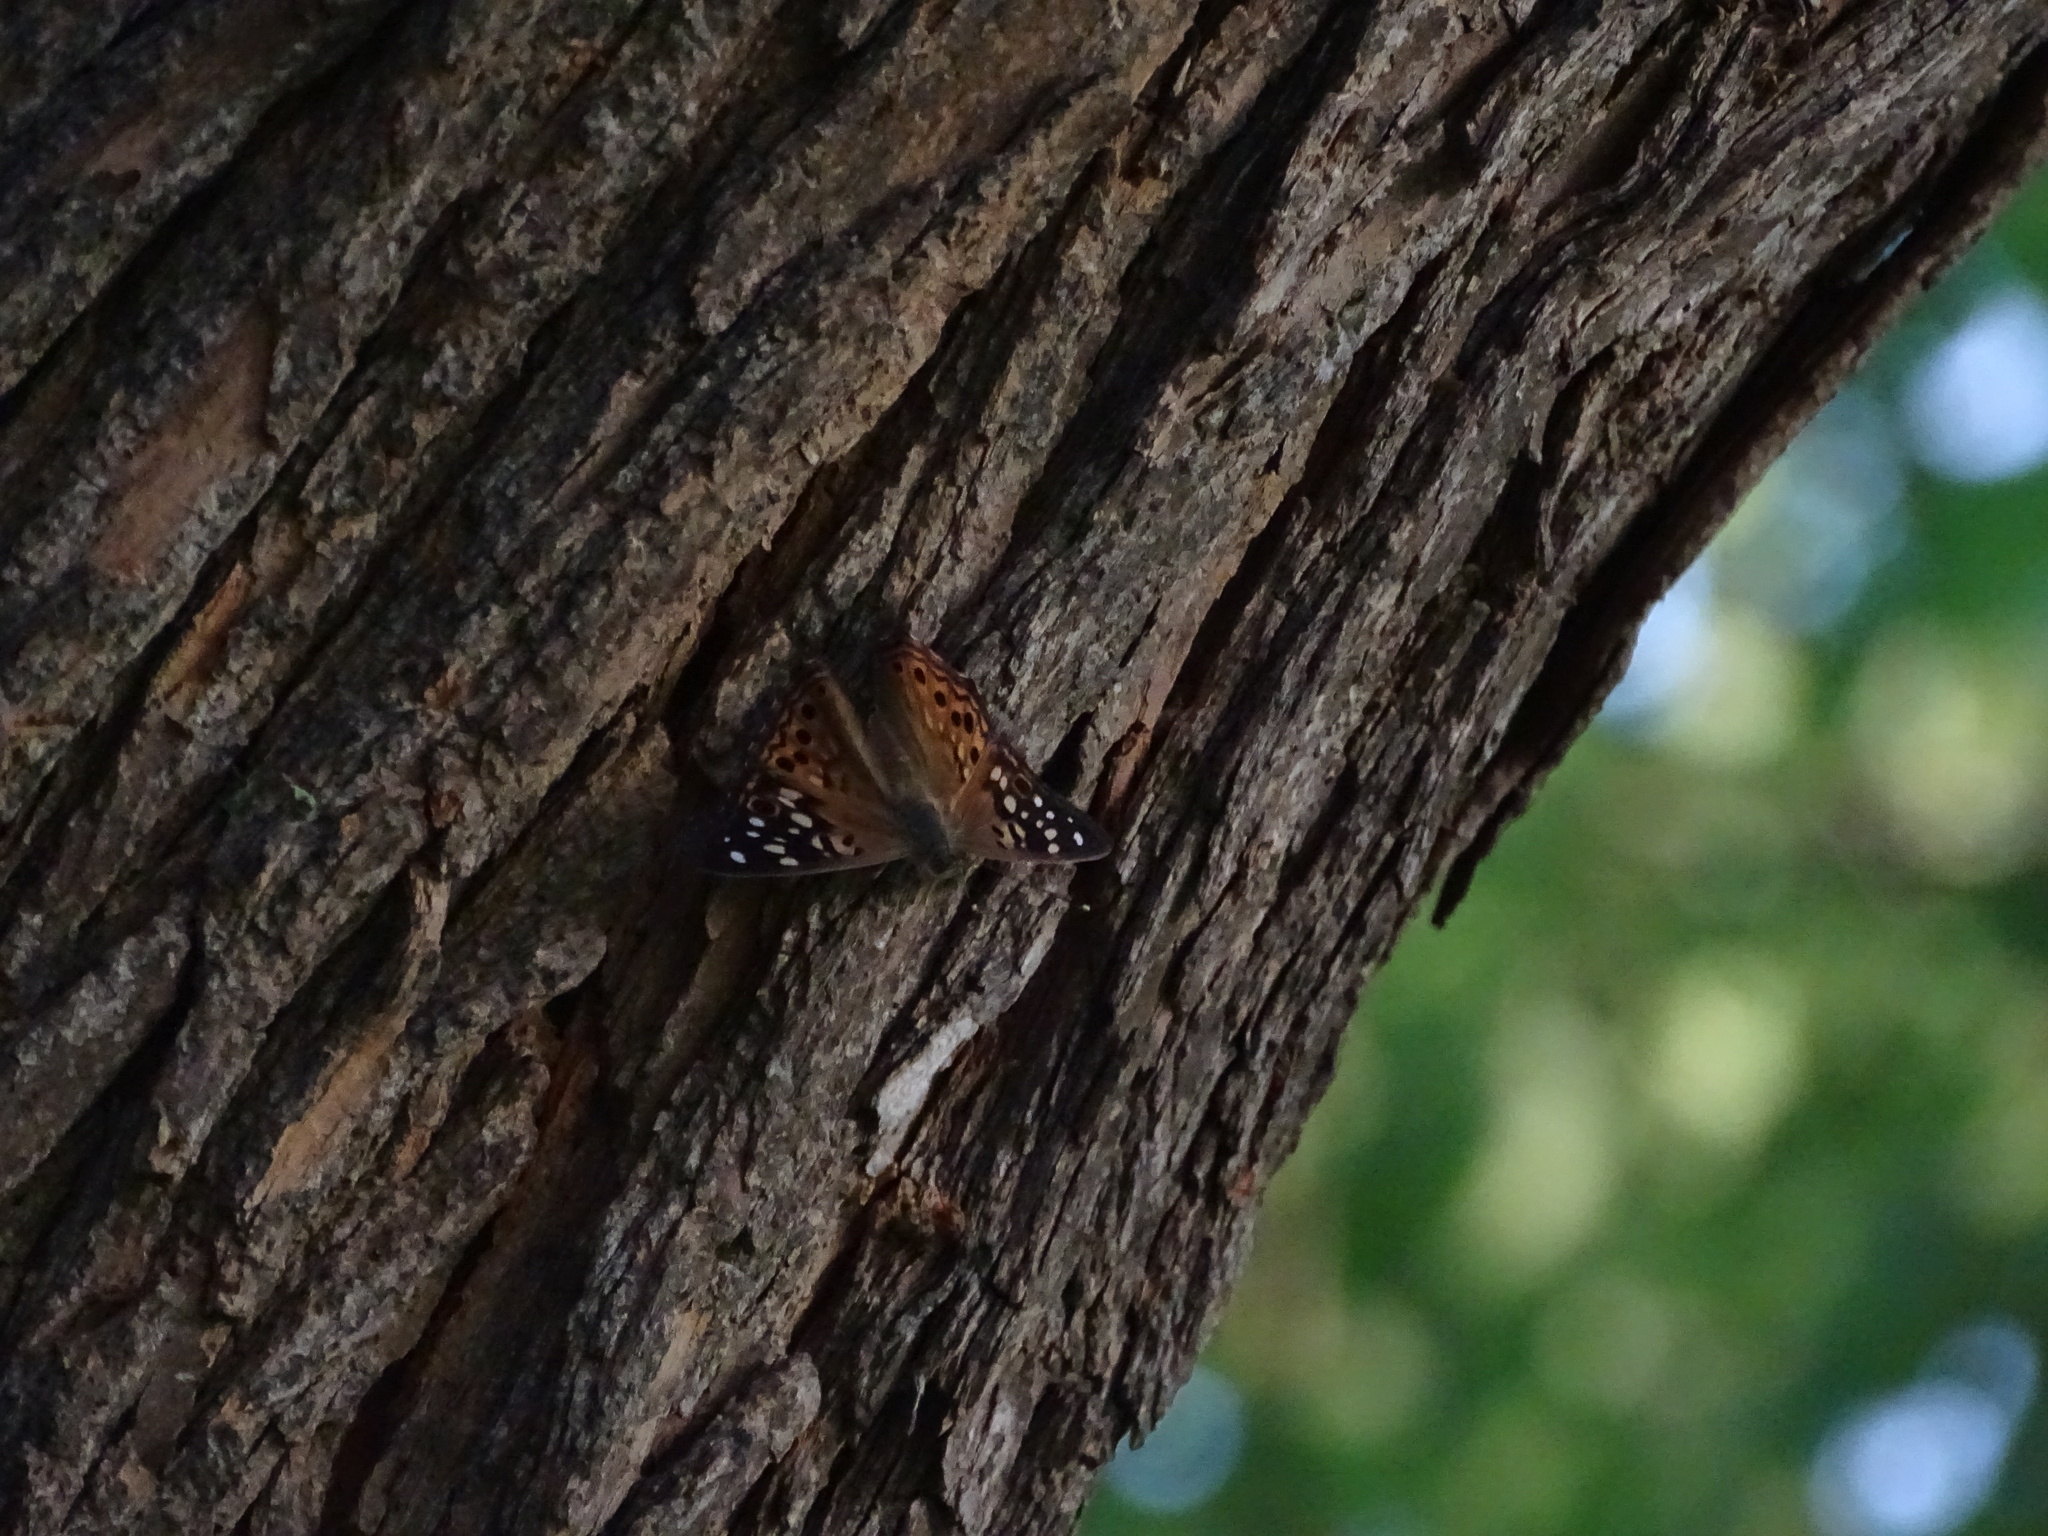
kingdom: Animalia
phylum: Arthropoda
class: Insecta
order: Lepidoptera
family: Nymphalidae
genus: Asterocampa
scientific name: Asterocampa celtis
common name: Hackberry emperor
